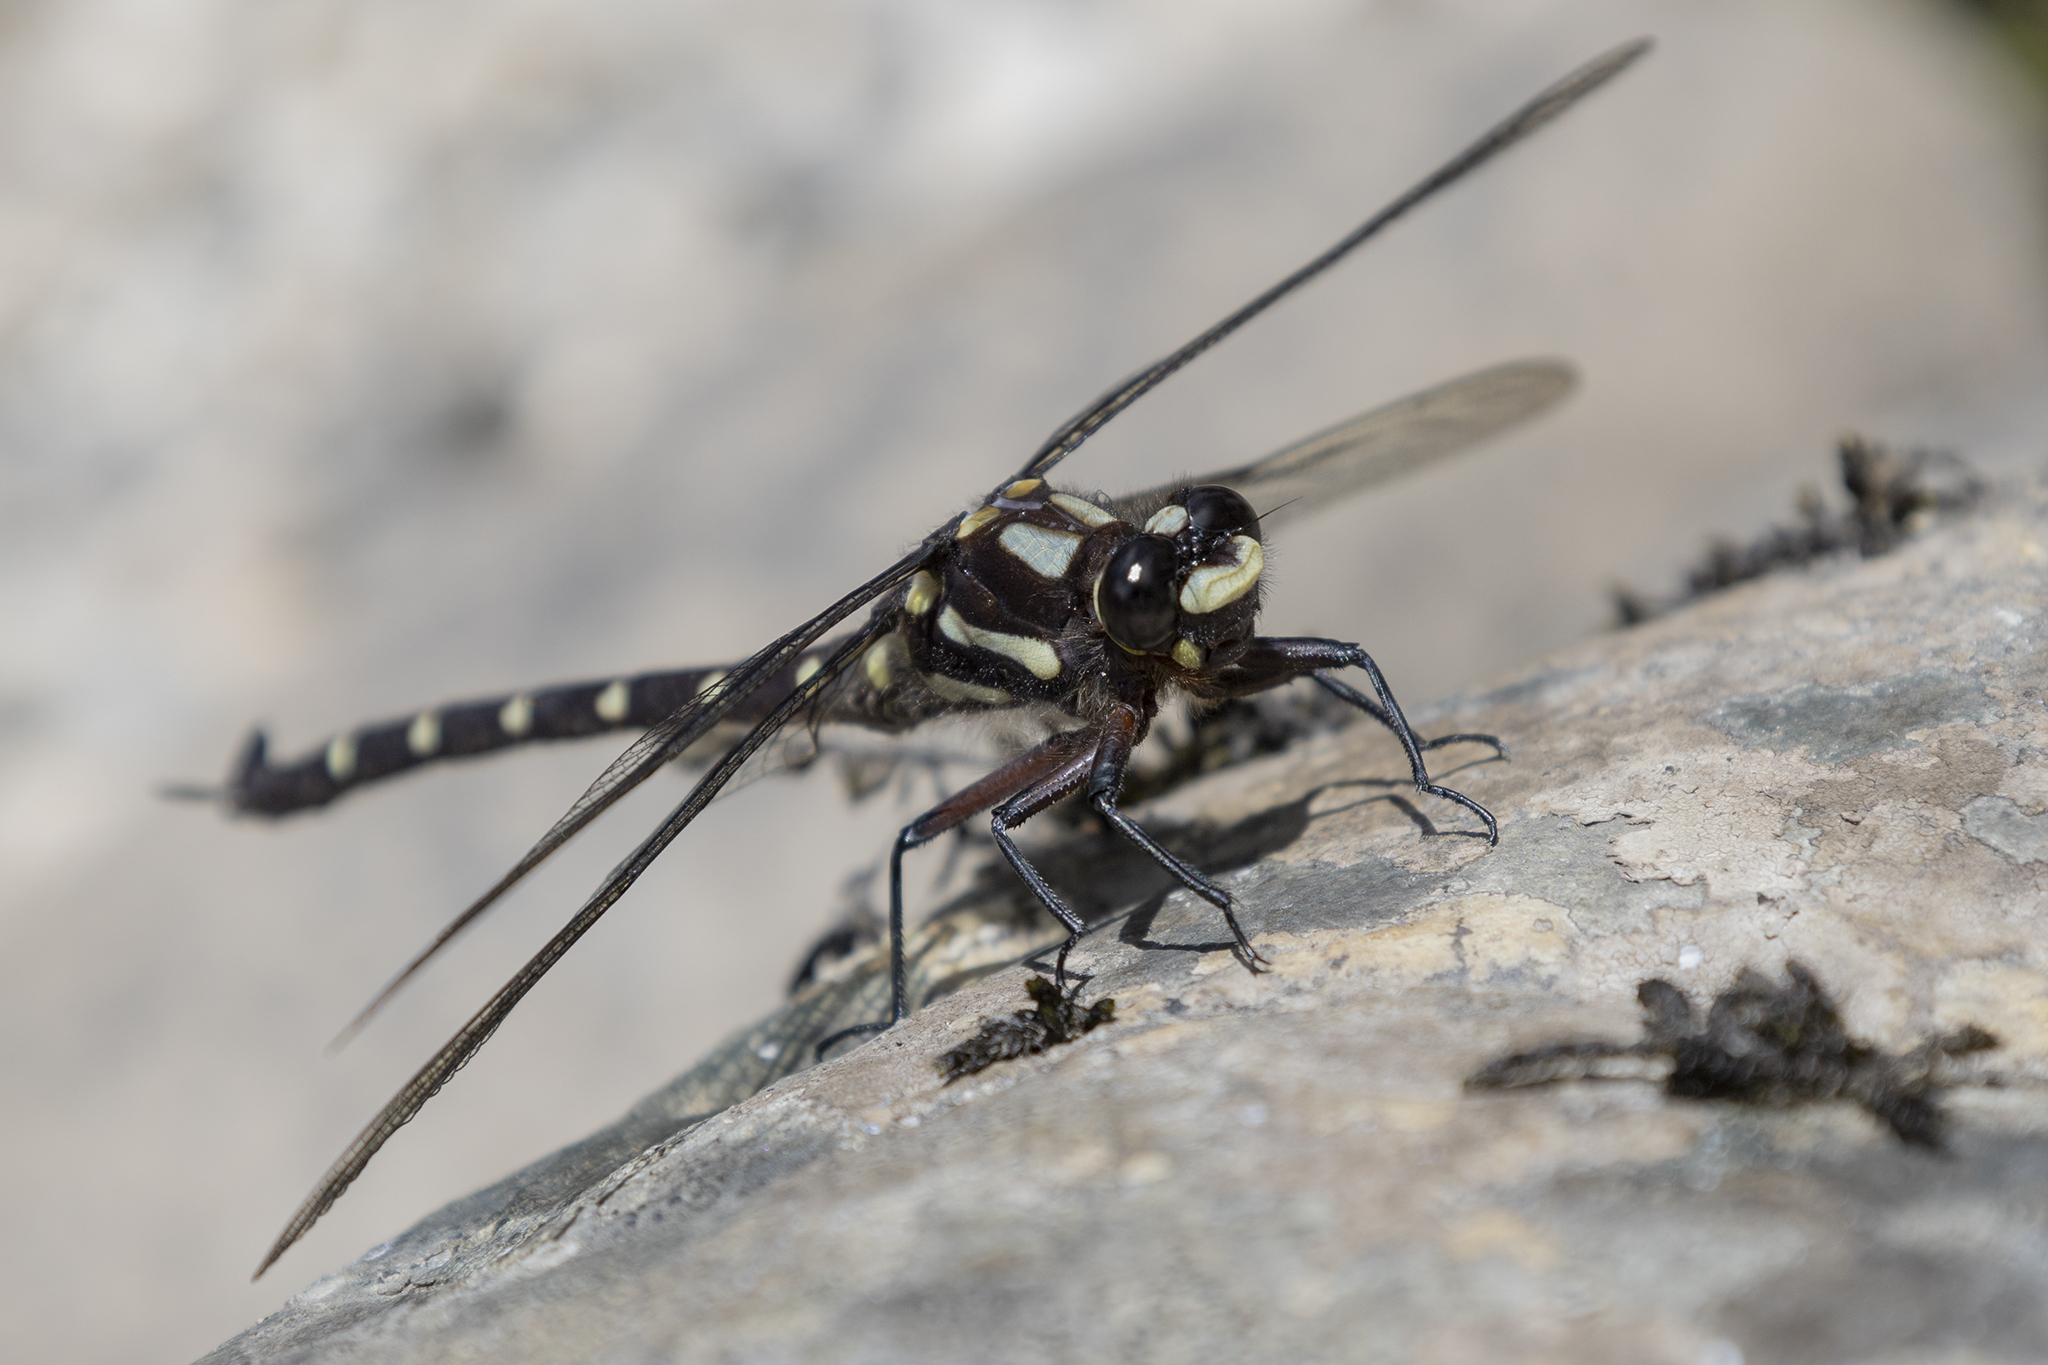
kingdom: Animalia
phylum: Arthropoda
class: Insecta
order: Odonata
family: Petaluridae
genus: Uropetala
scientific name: Uropetala carovei
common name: Bush giant dragonfly
